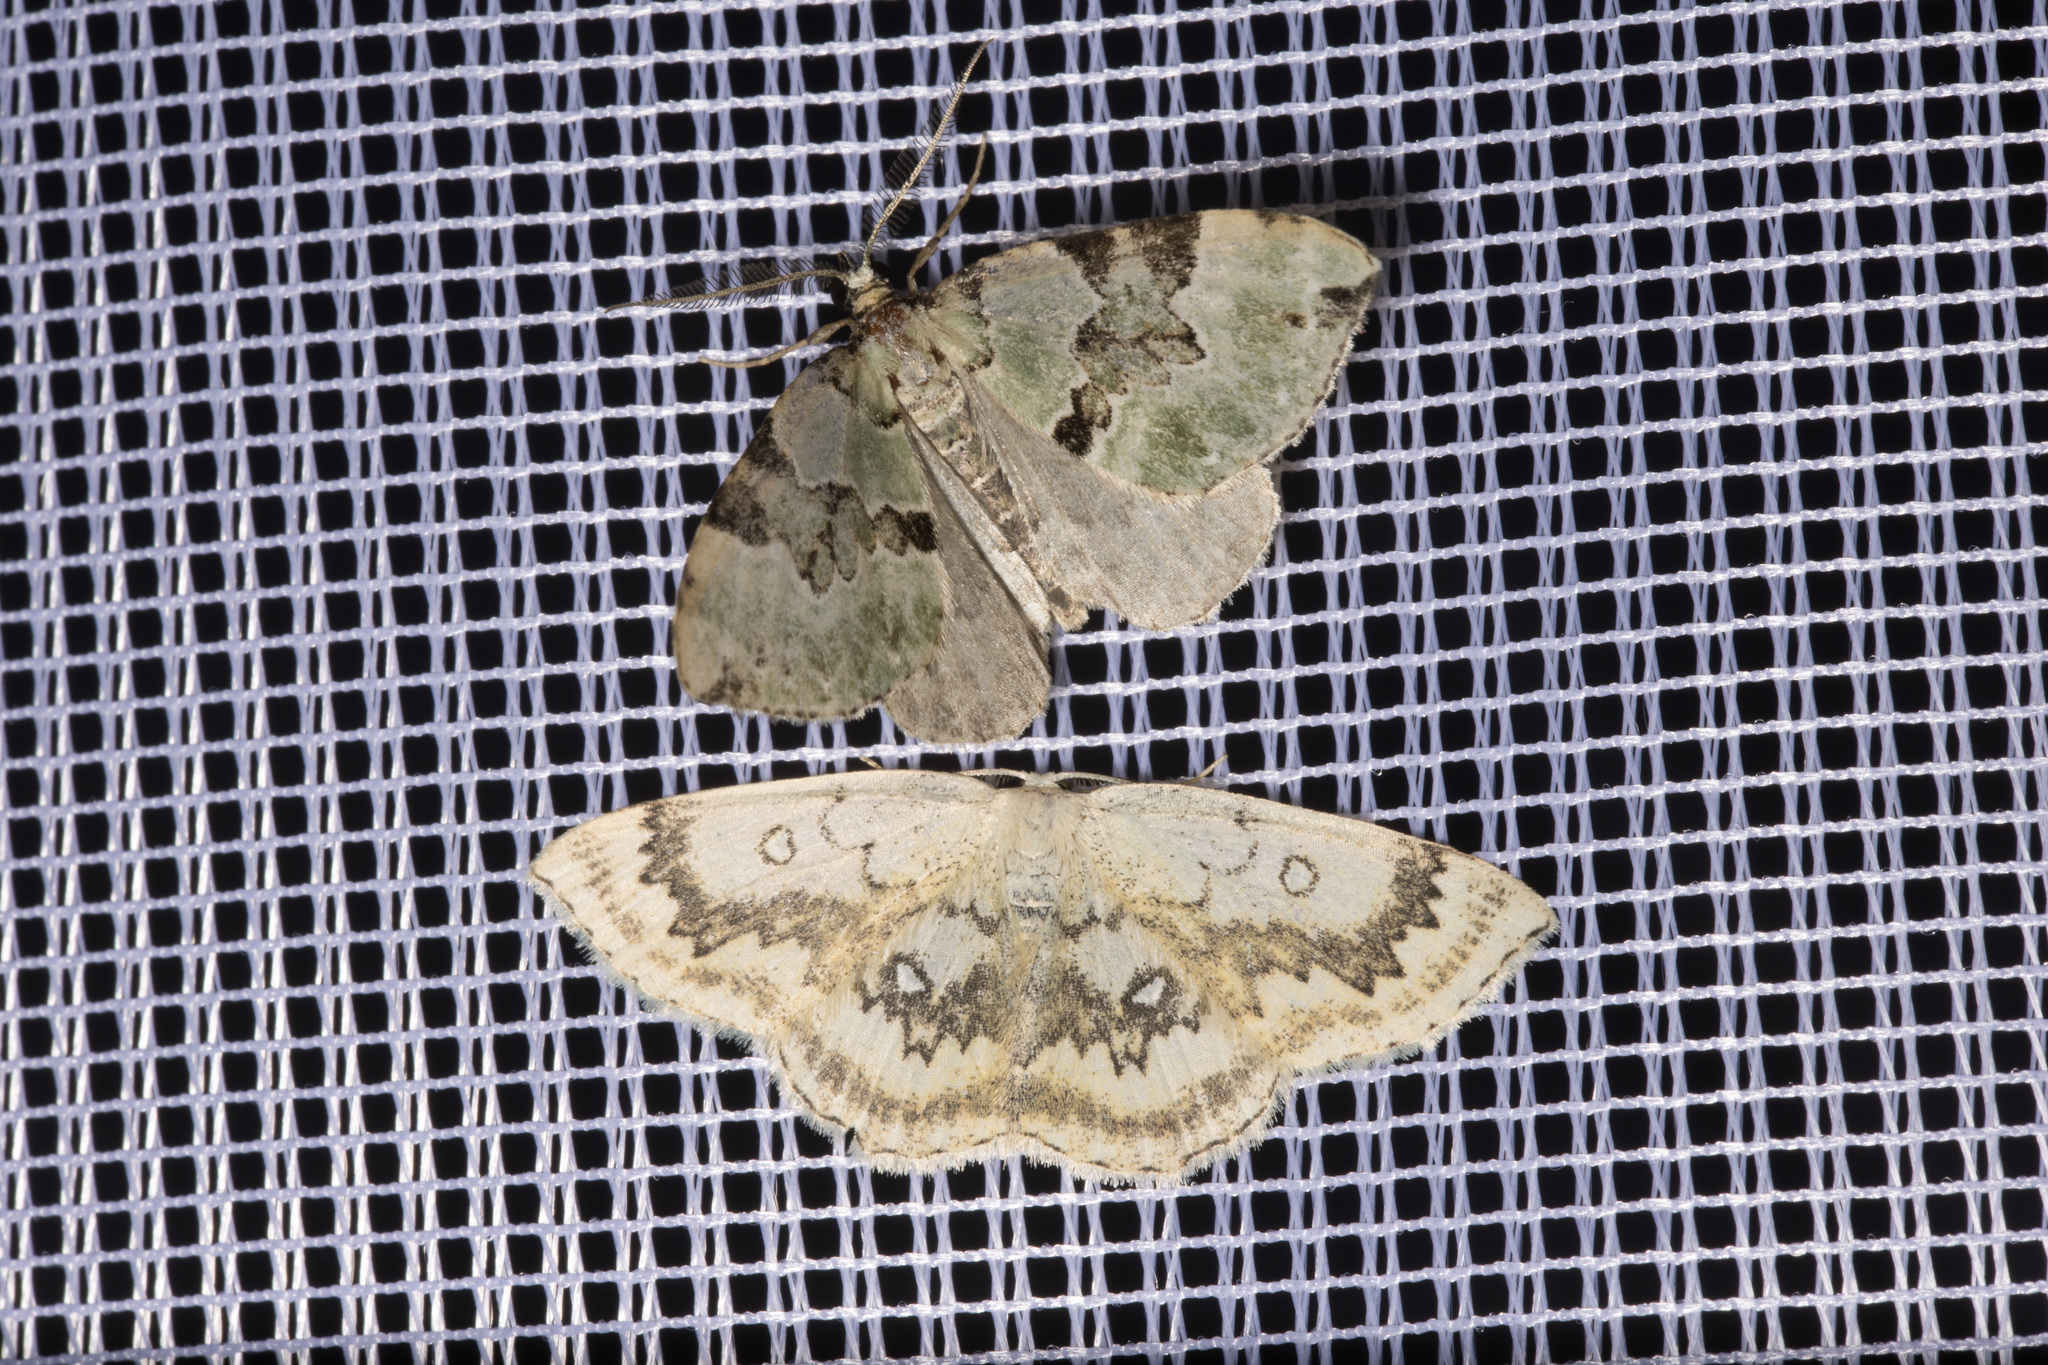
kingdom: Animalia
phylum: Arthropoda
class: Insecta
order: Lepidoptera
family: Geometridae
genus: Cyclophora
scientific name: Cyclophora annularia
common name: Mocha
